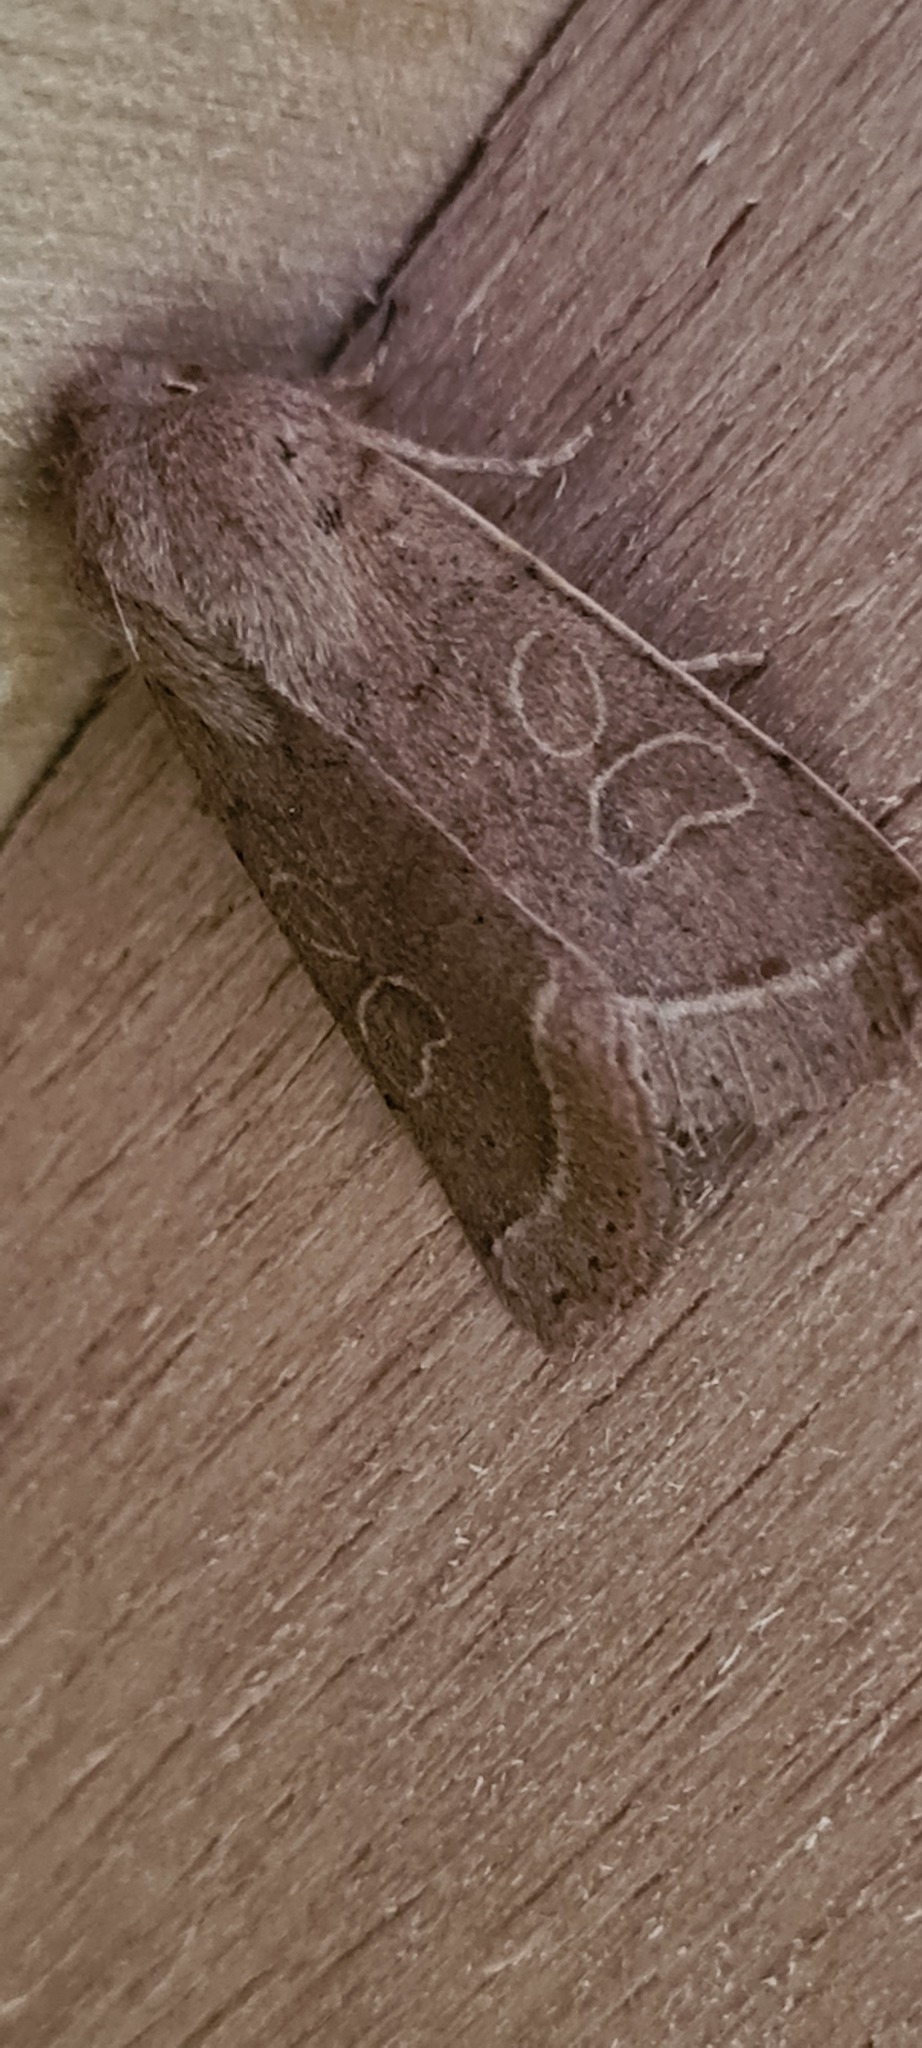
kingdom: Animalia
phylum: Arthropoda
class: Insecta
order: Lepidoptera
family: Noctuidae
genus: Orthosia
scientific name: Orthosia cerasi
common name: Common quaker
